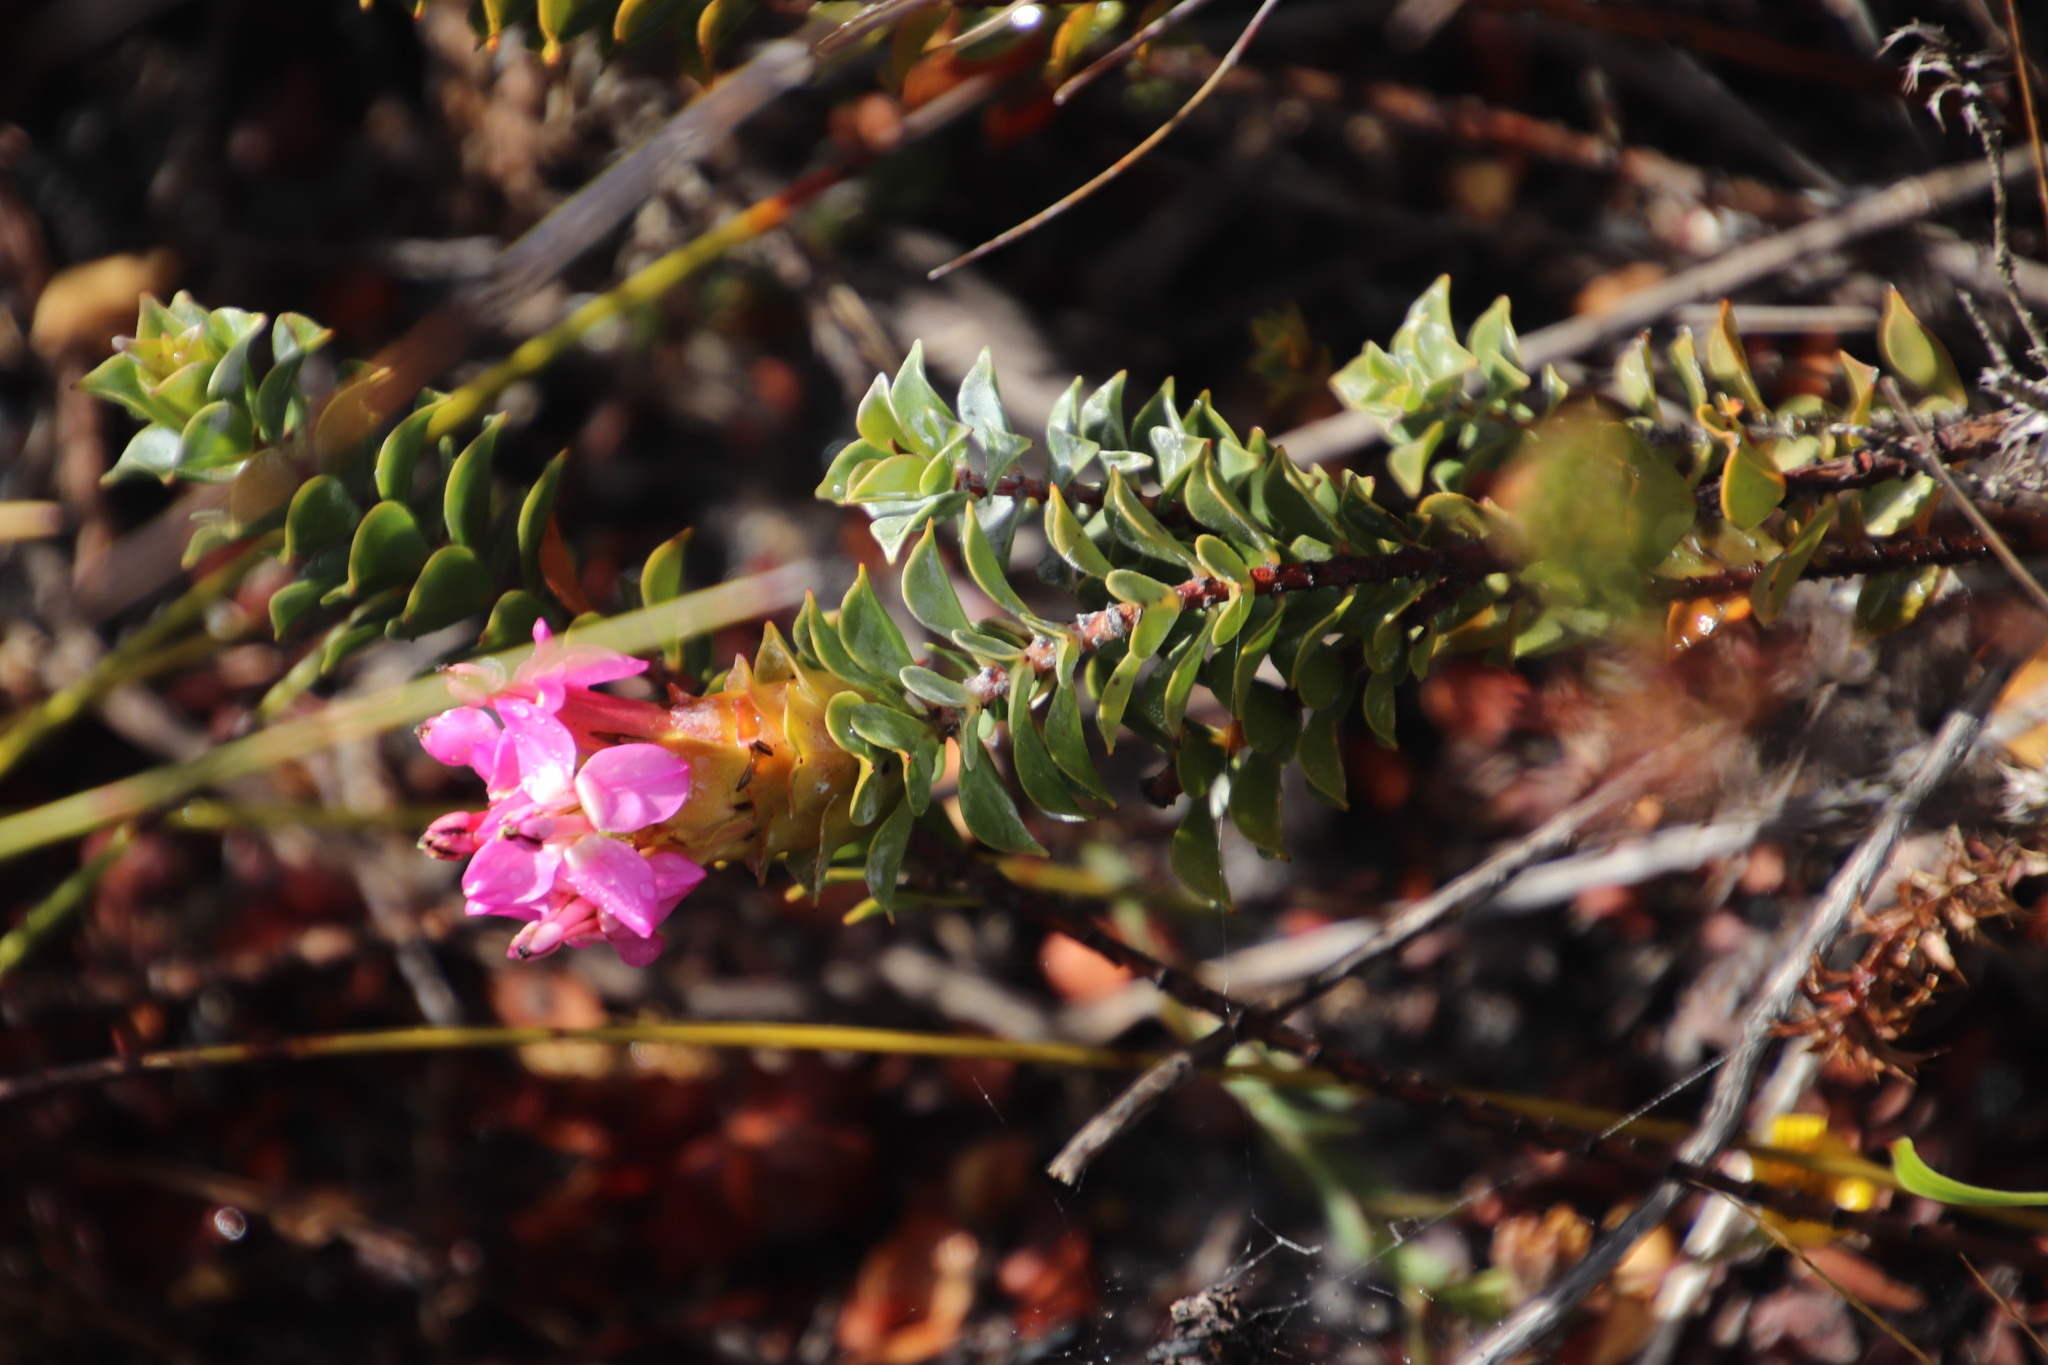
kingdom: Plantae
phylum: Tracheophyta
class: Magnoliopsida
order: Myrtales
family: Penaeaceae
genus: Saltera
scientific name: Saltera sarcocolla
